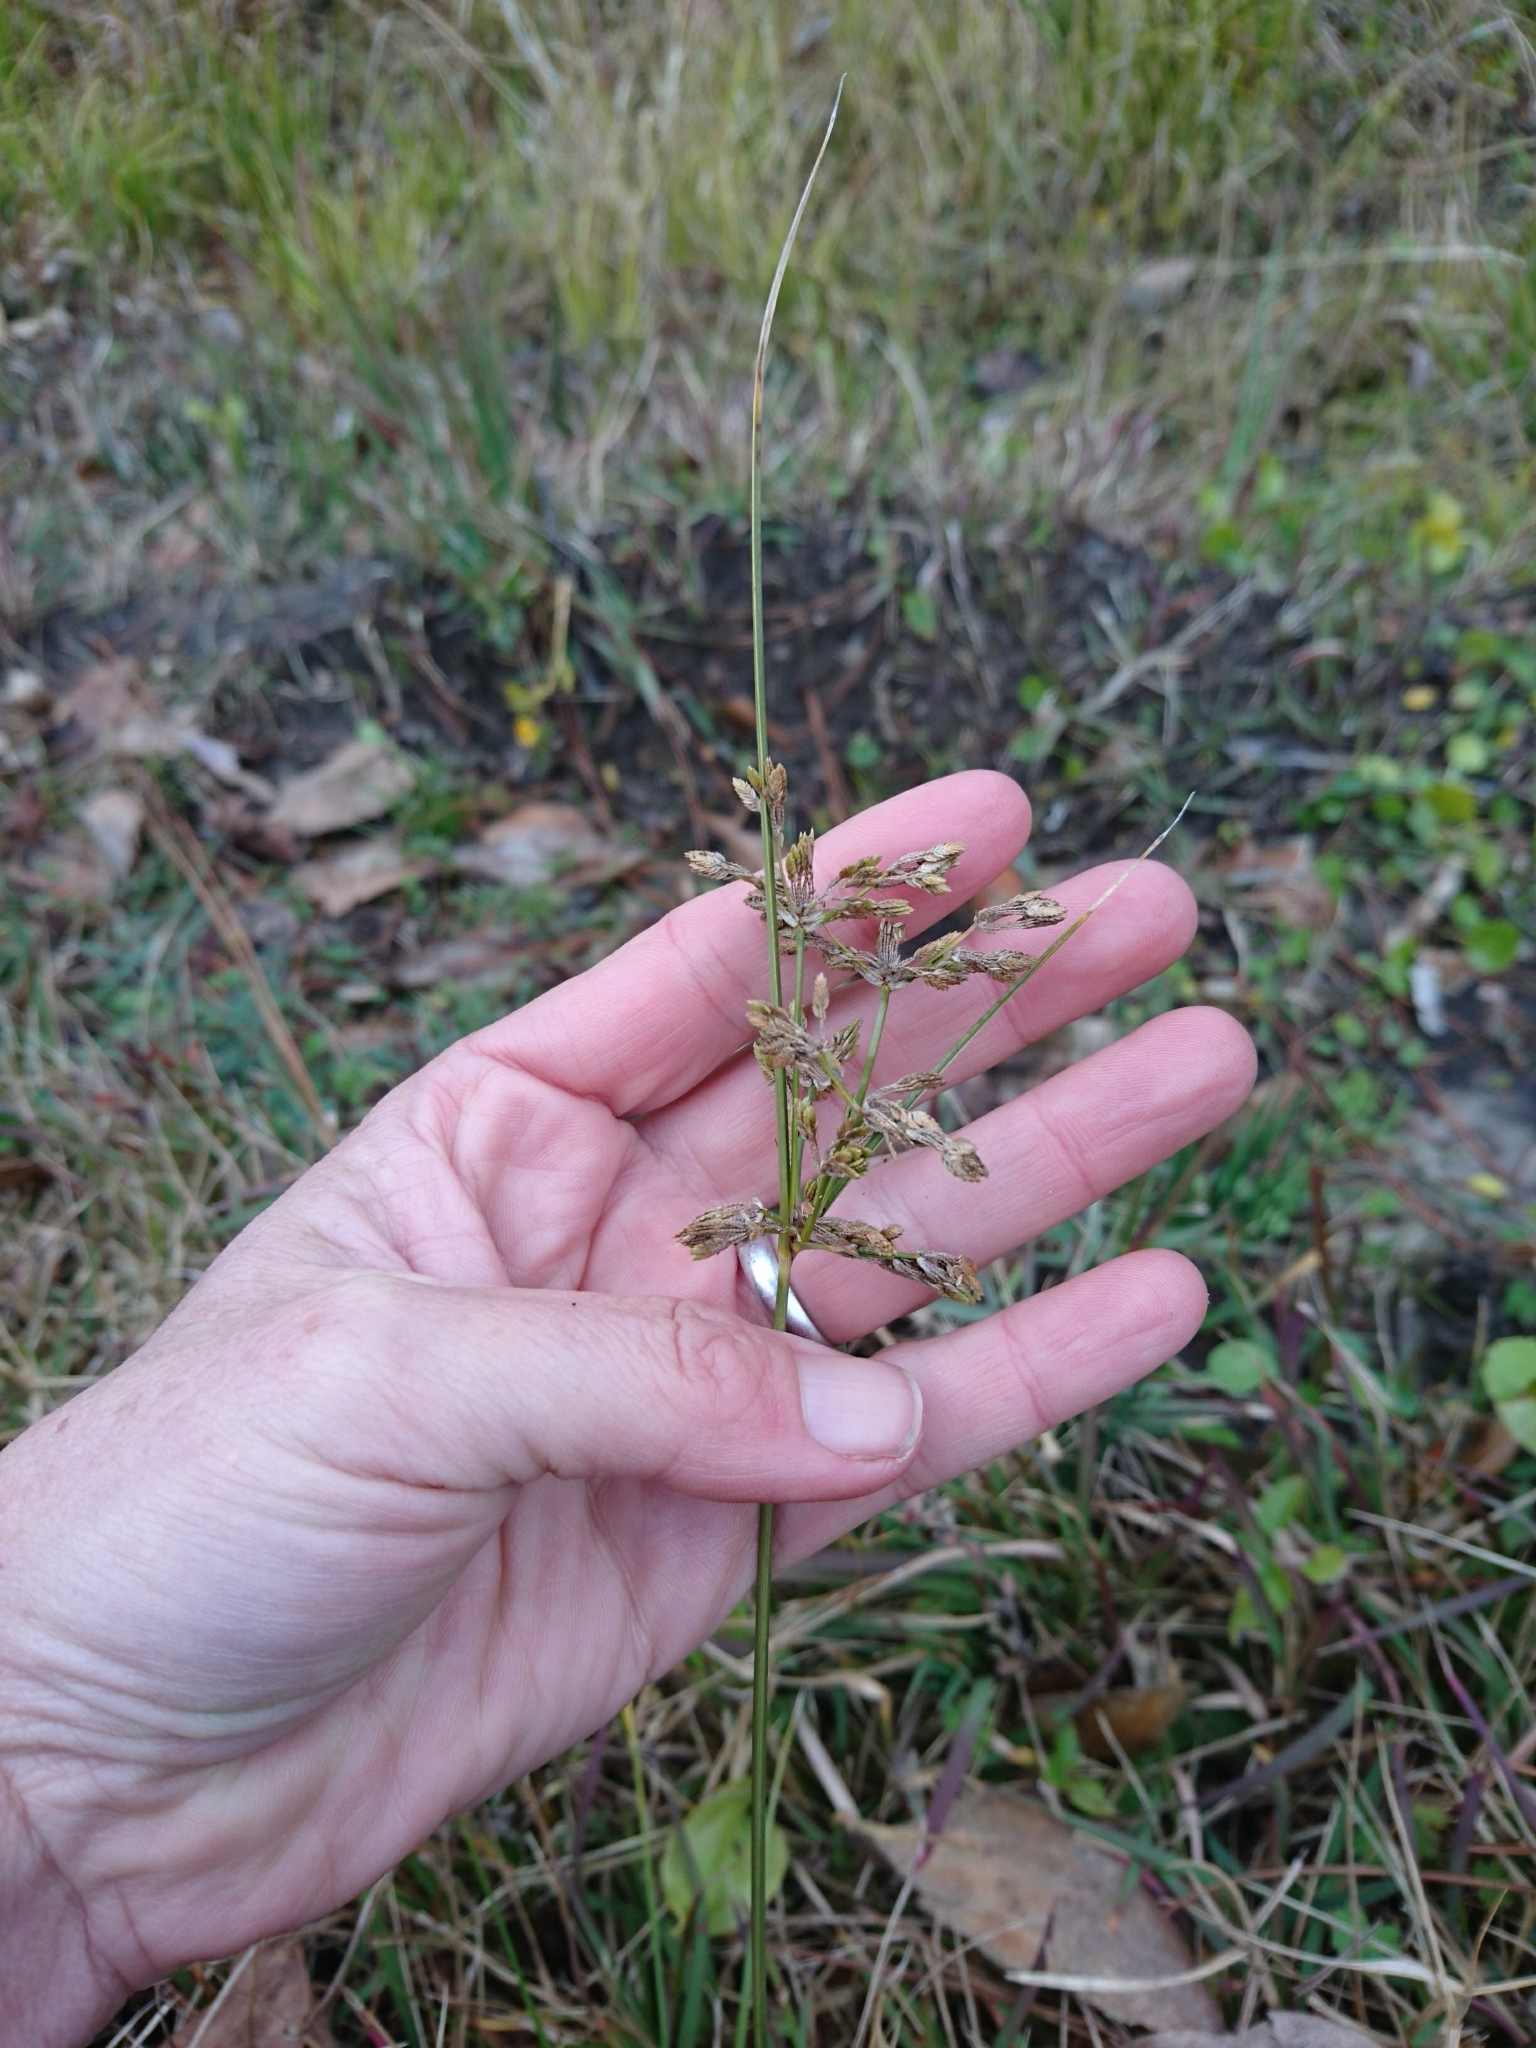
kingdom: Plantae
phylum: Tracheophyta
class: Liliopsida
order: Poales
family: Cyperaceae
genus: Cyperus
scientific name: Cyperus surinamensis
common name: Tropical flat sedge
